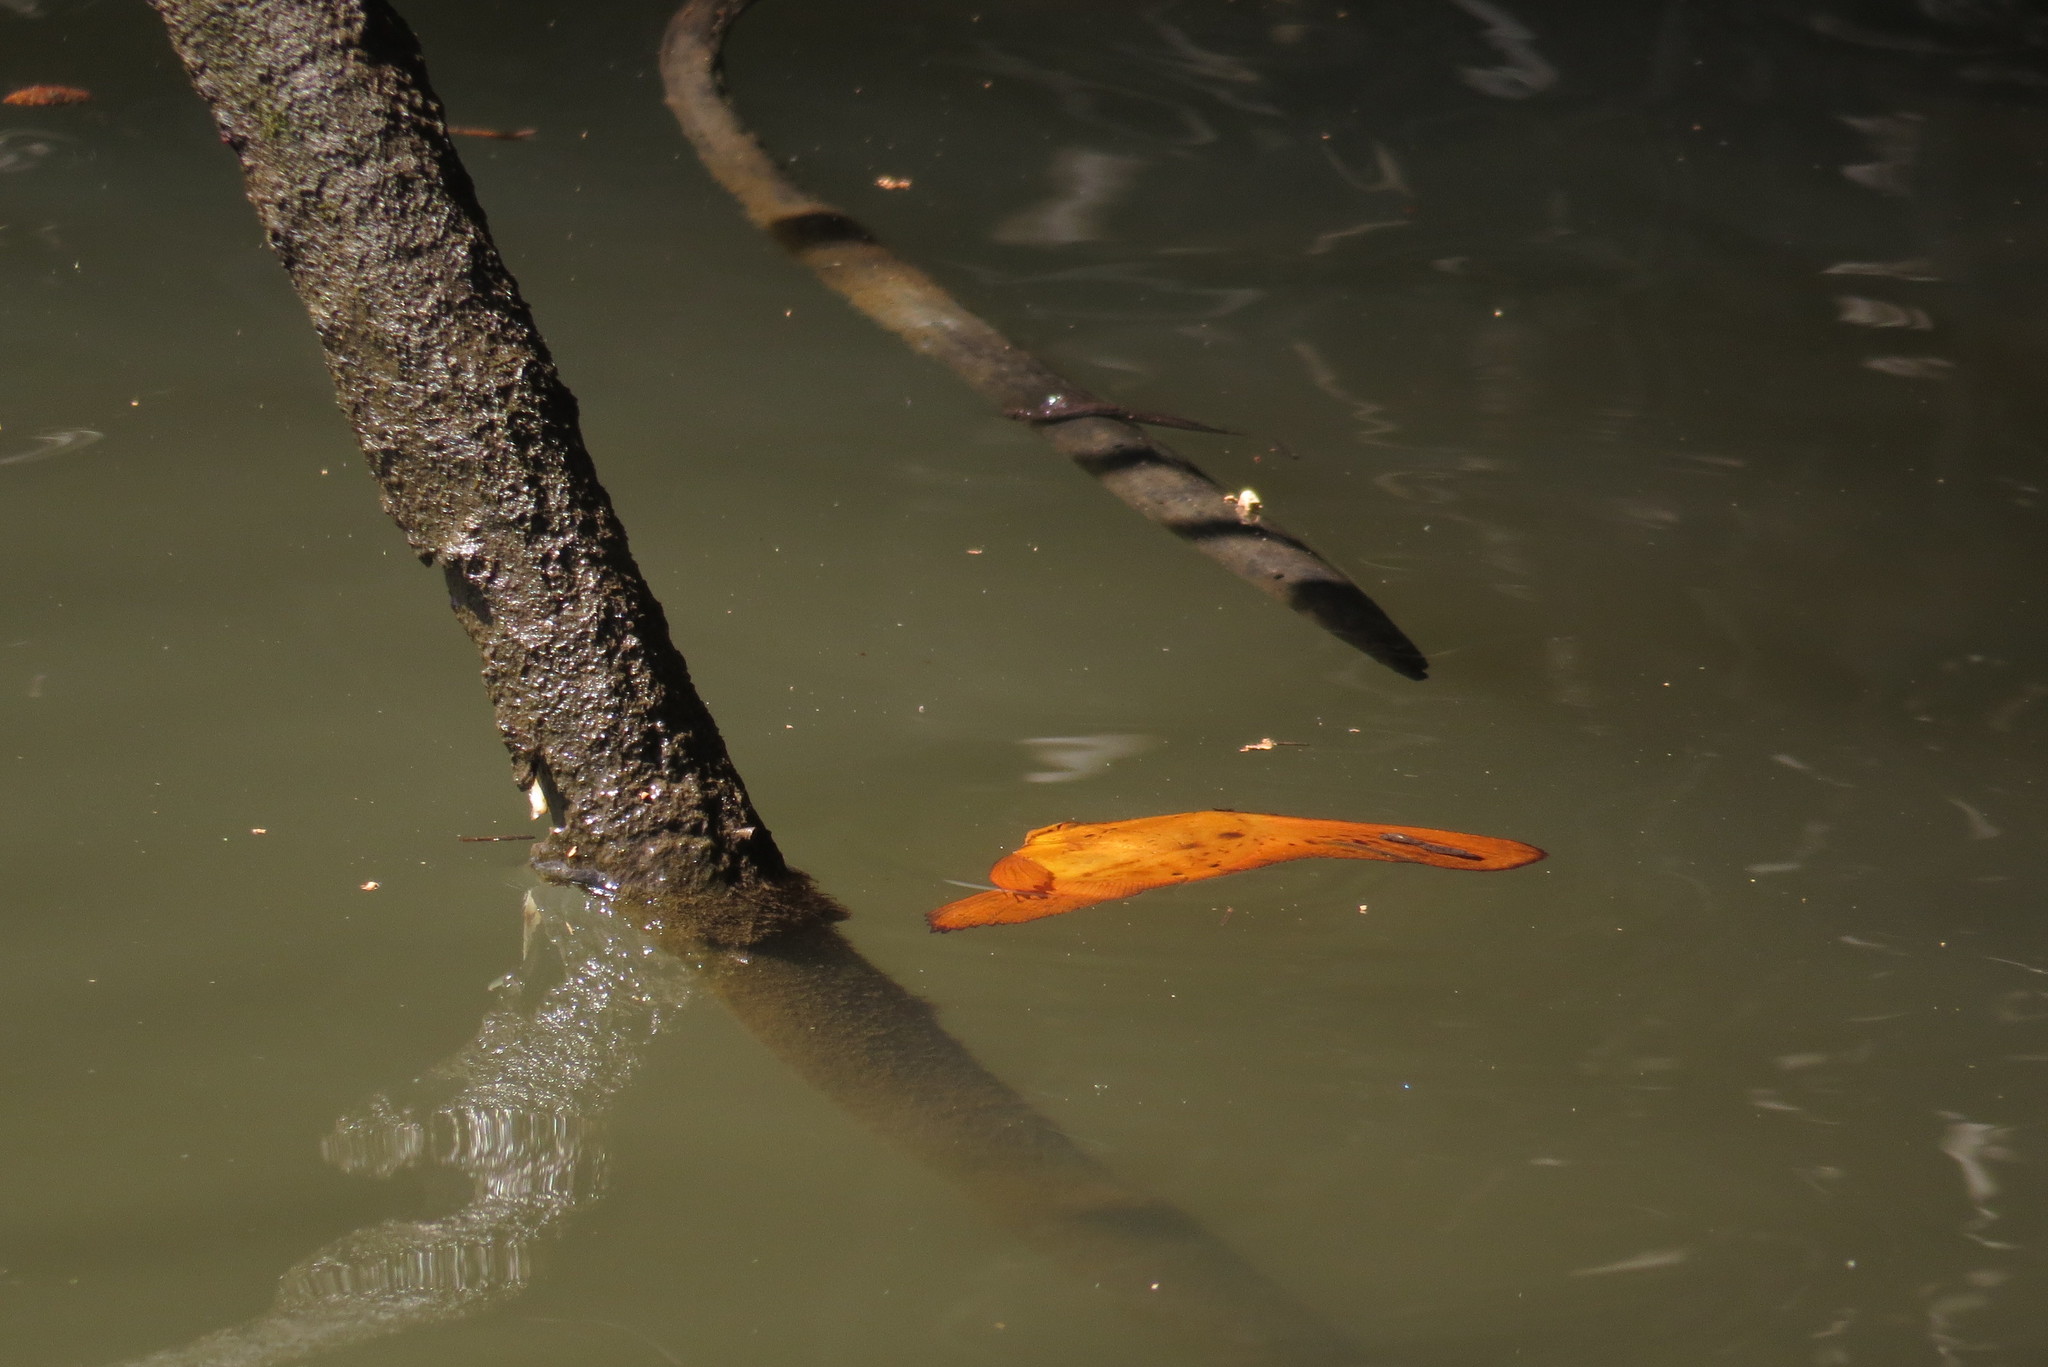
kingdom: Animalia
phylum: Chordata
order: Perciformes
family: Ephippidae
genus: Platax
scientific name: Platax orbicularis
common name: Batfish
